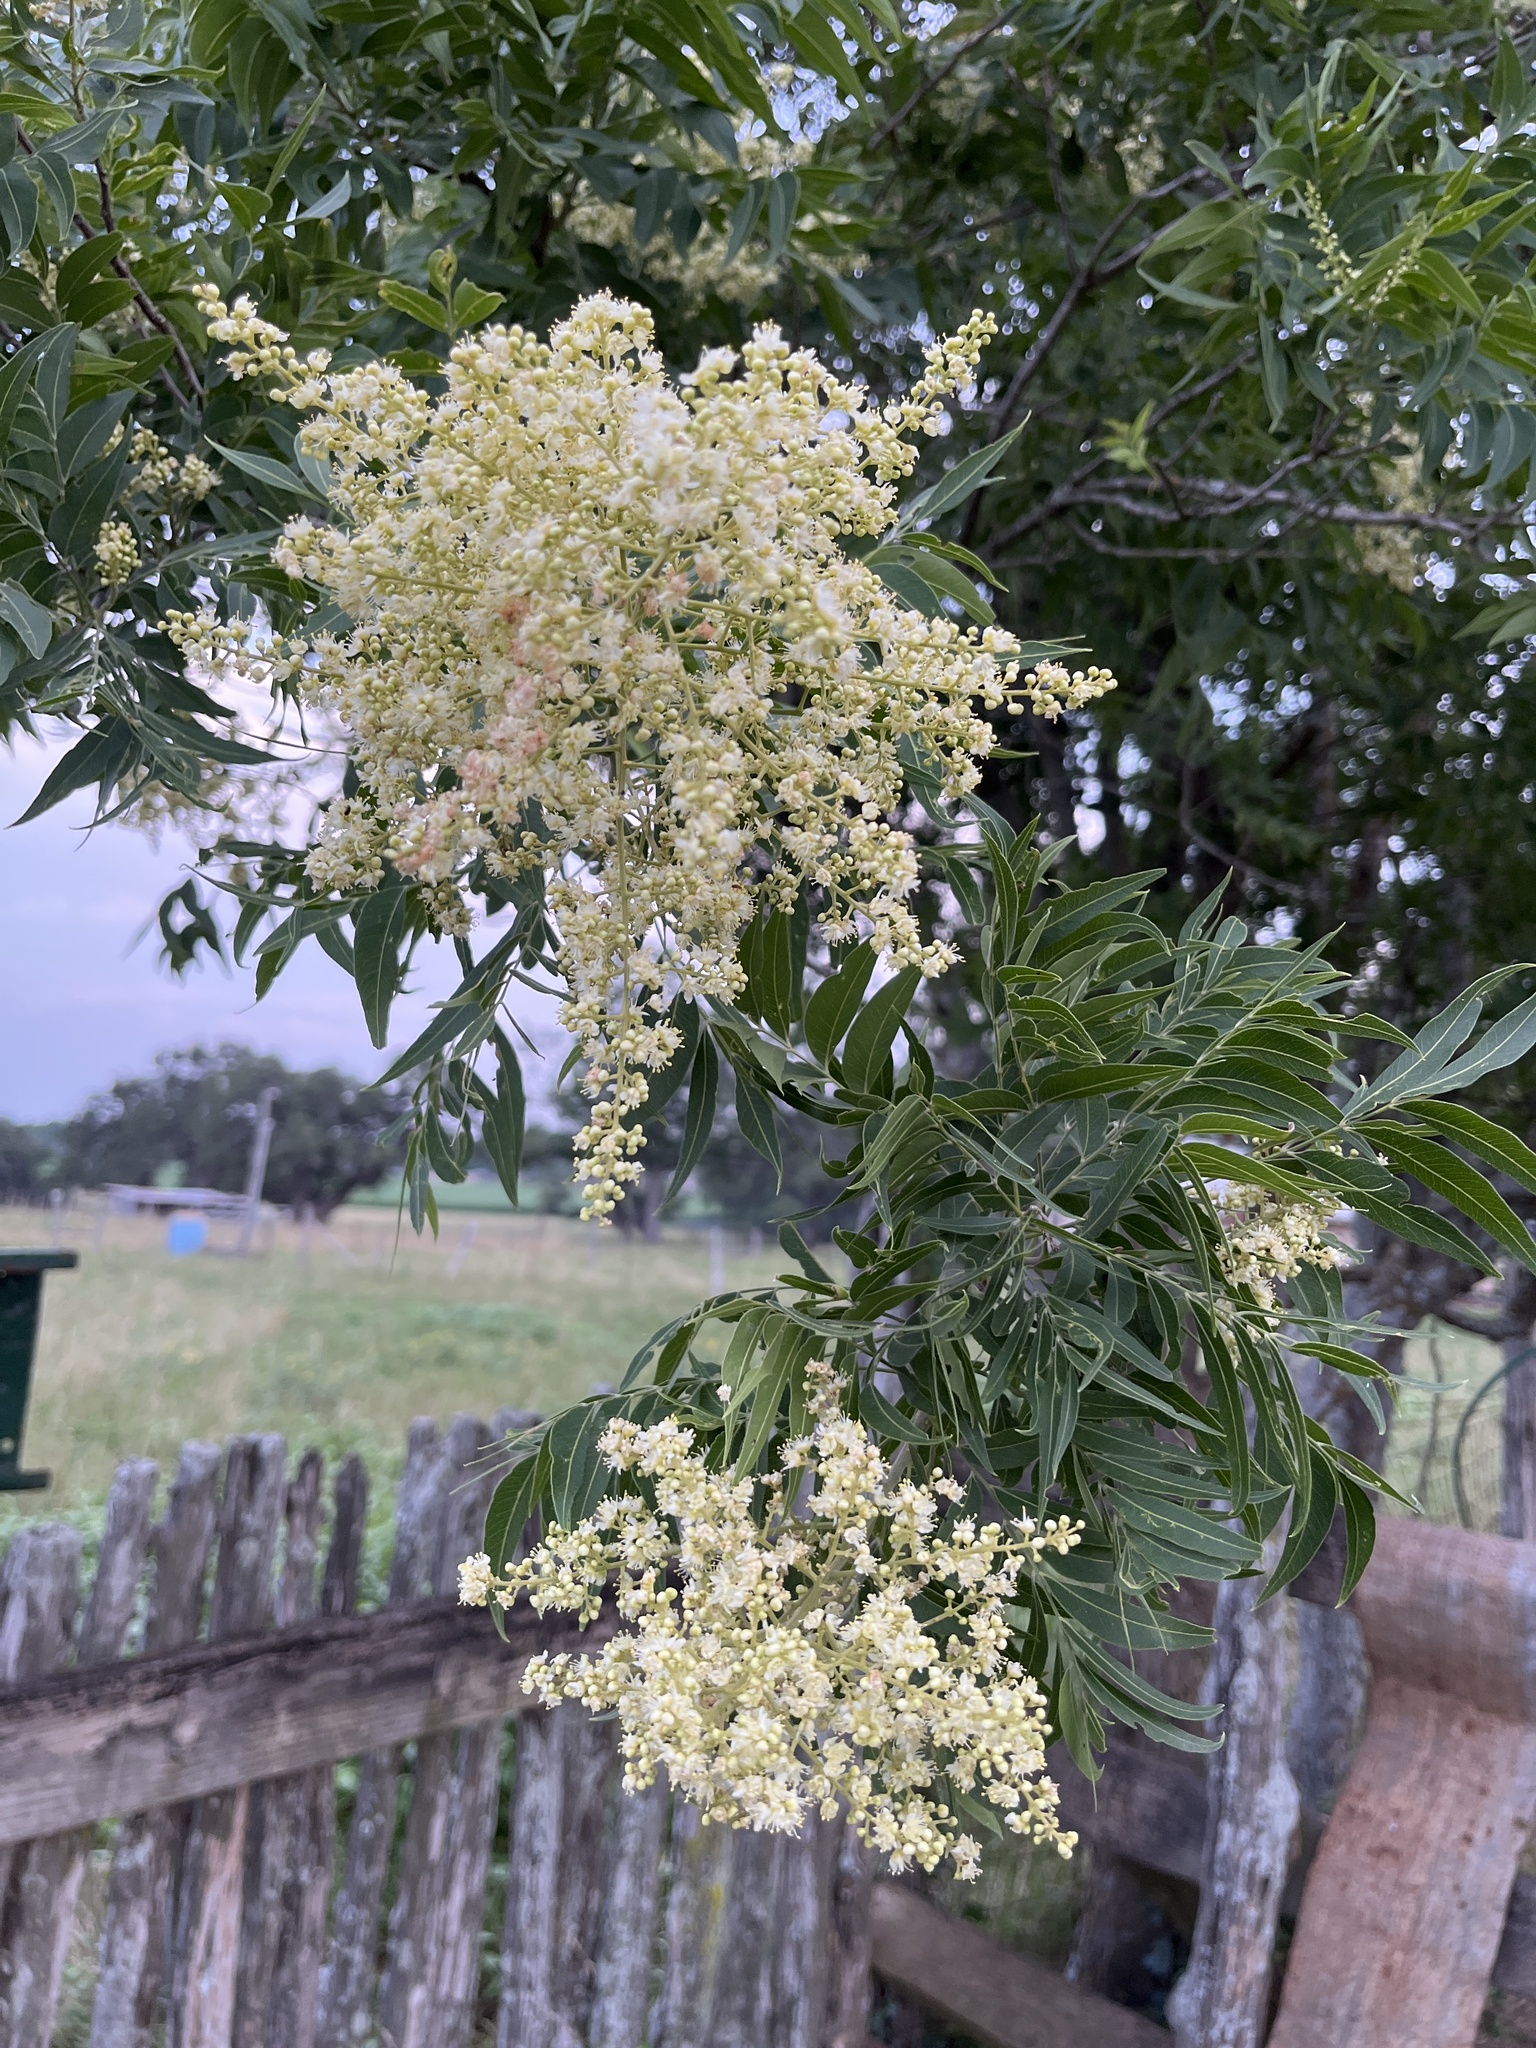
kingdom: Plantae
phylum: Tracheophyta
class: Magnoliopsida
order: Sapindales
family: Anacardiaceae
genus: Rhus
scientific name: Rhus lanceolata
